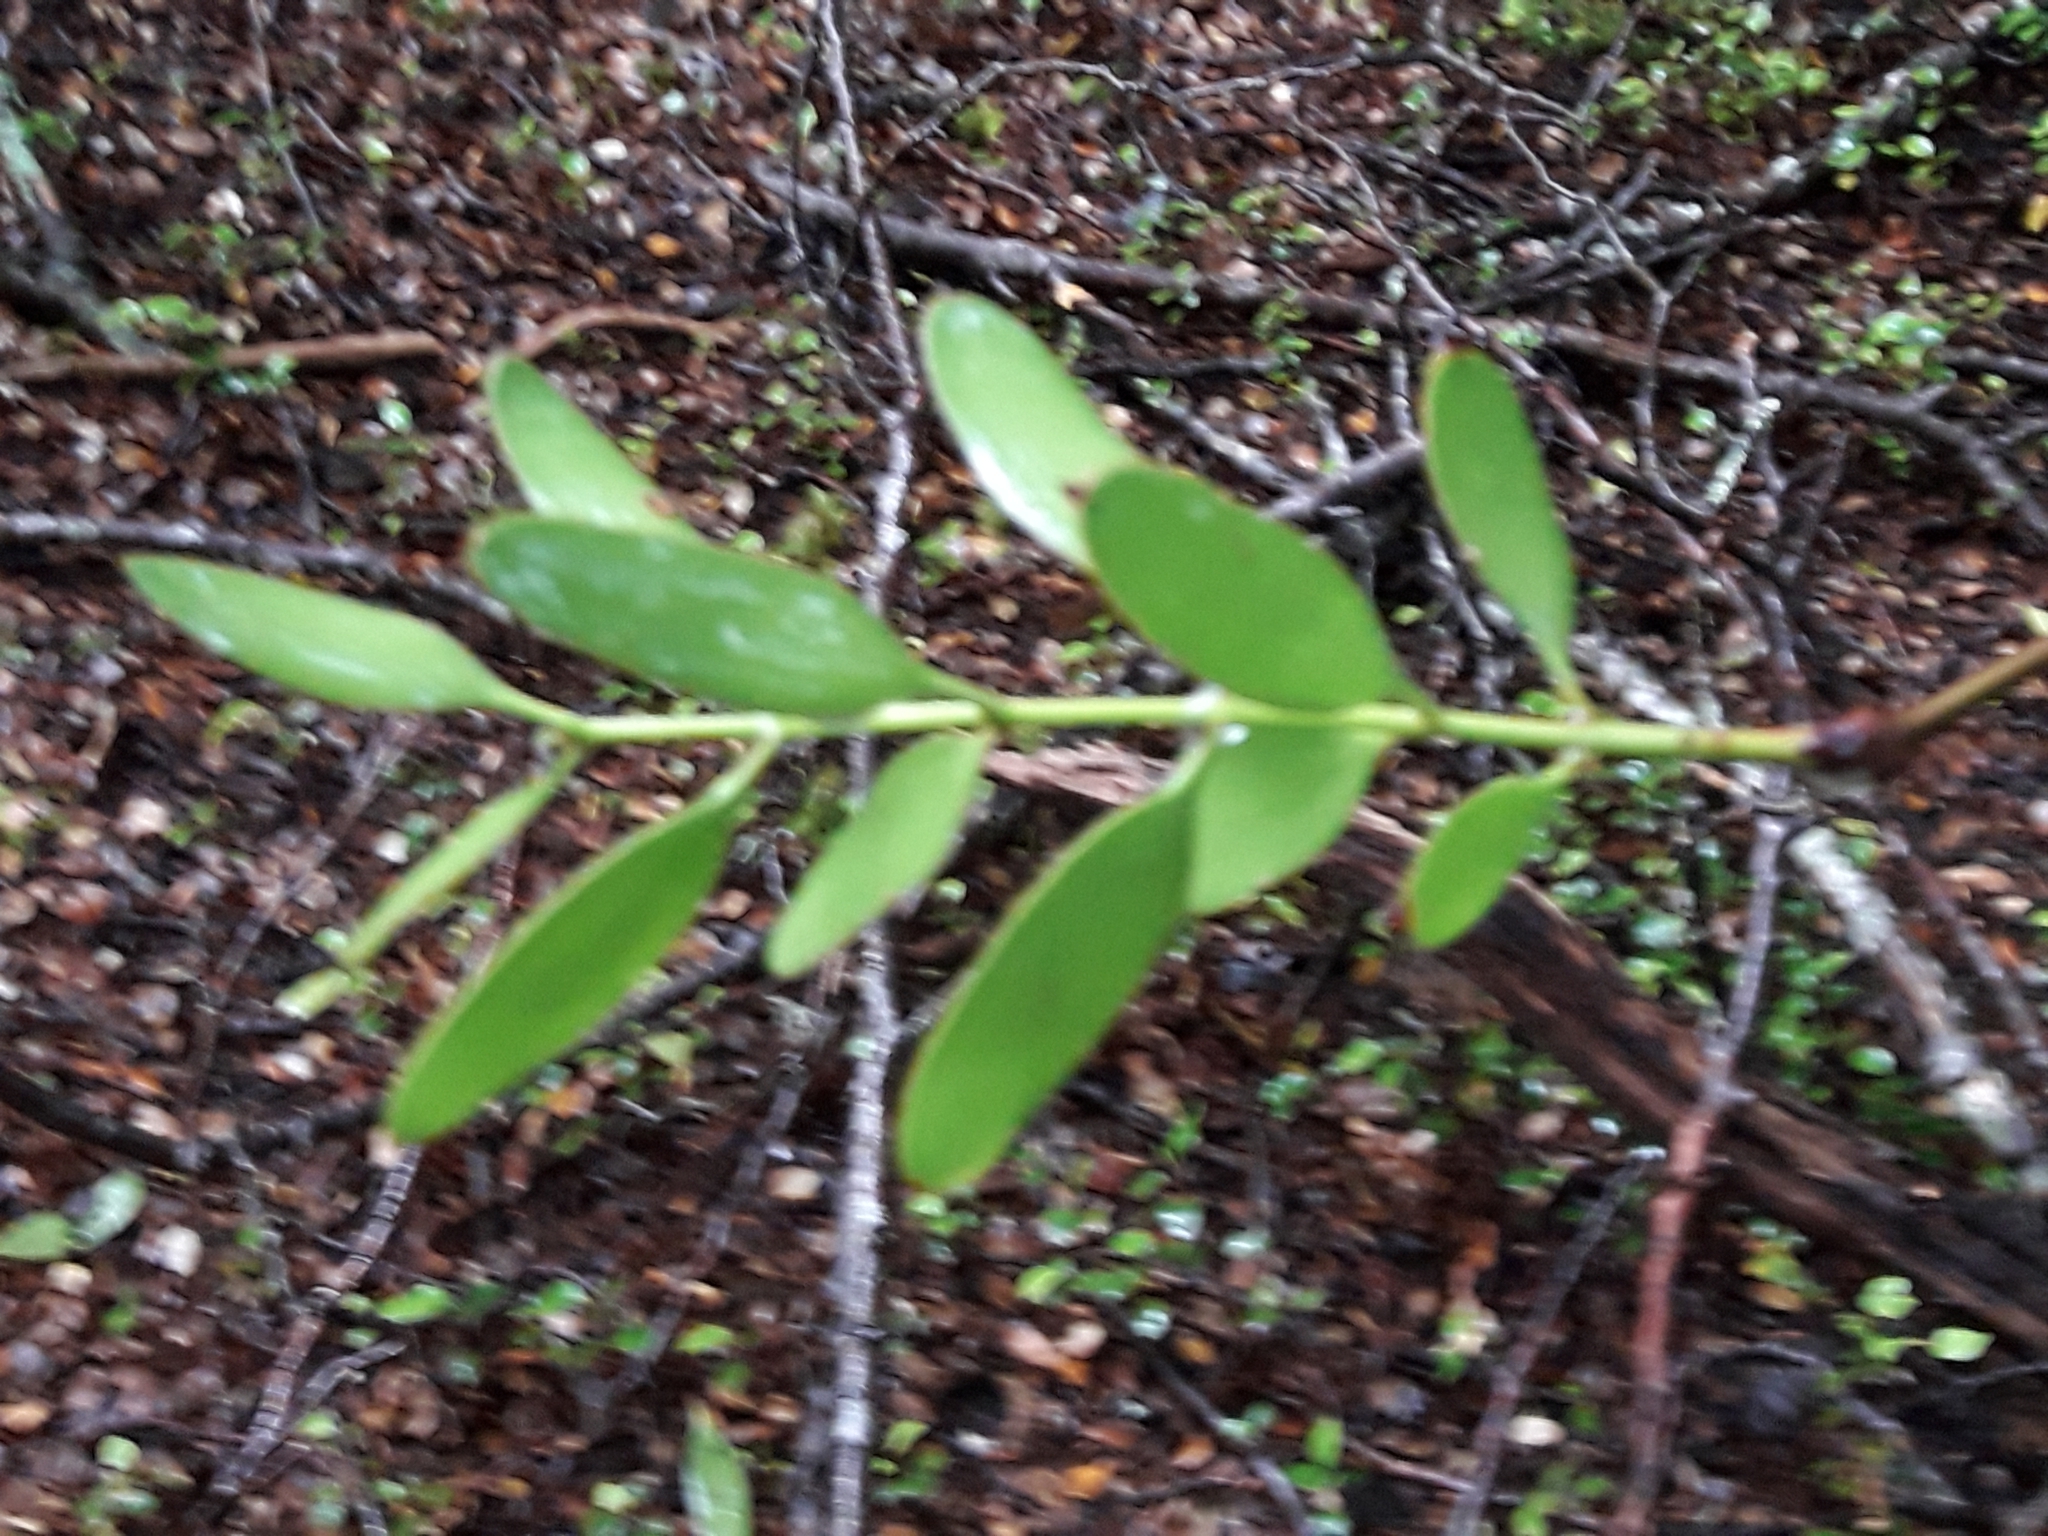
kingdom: Plantae
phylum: Tracheophyta
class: Magnoliopsida
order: Santalales
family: Loranthaceae
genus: Alepis
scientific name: Alepis flavida
